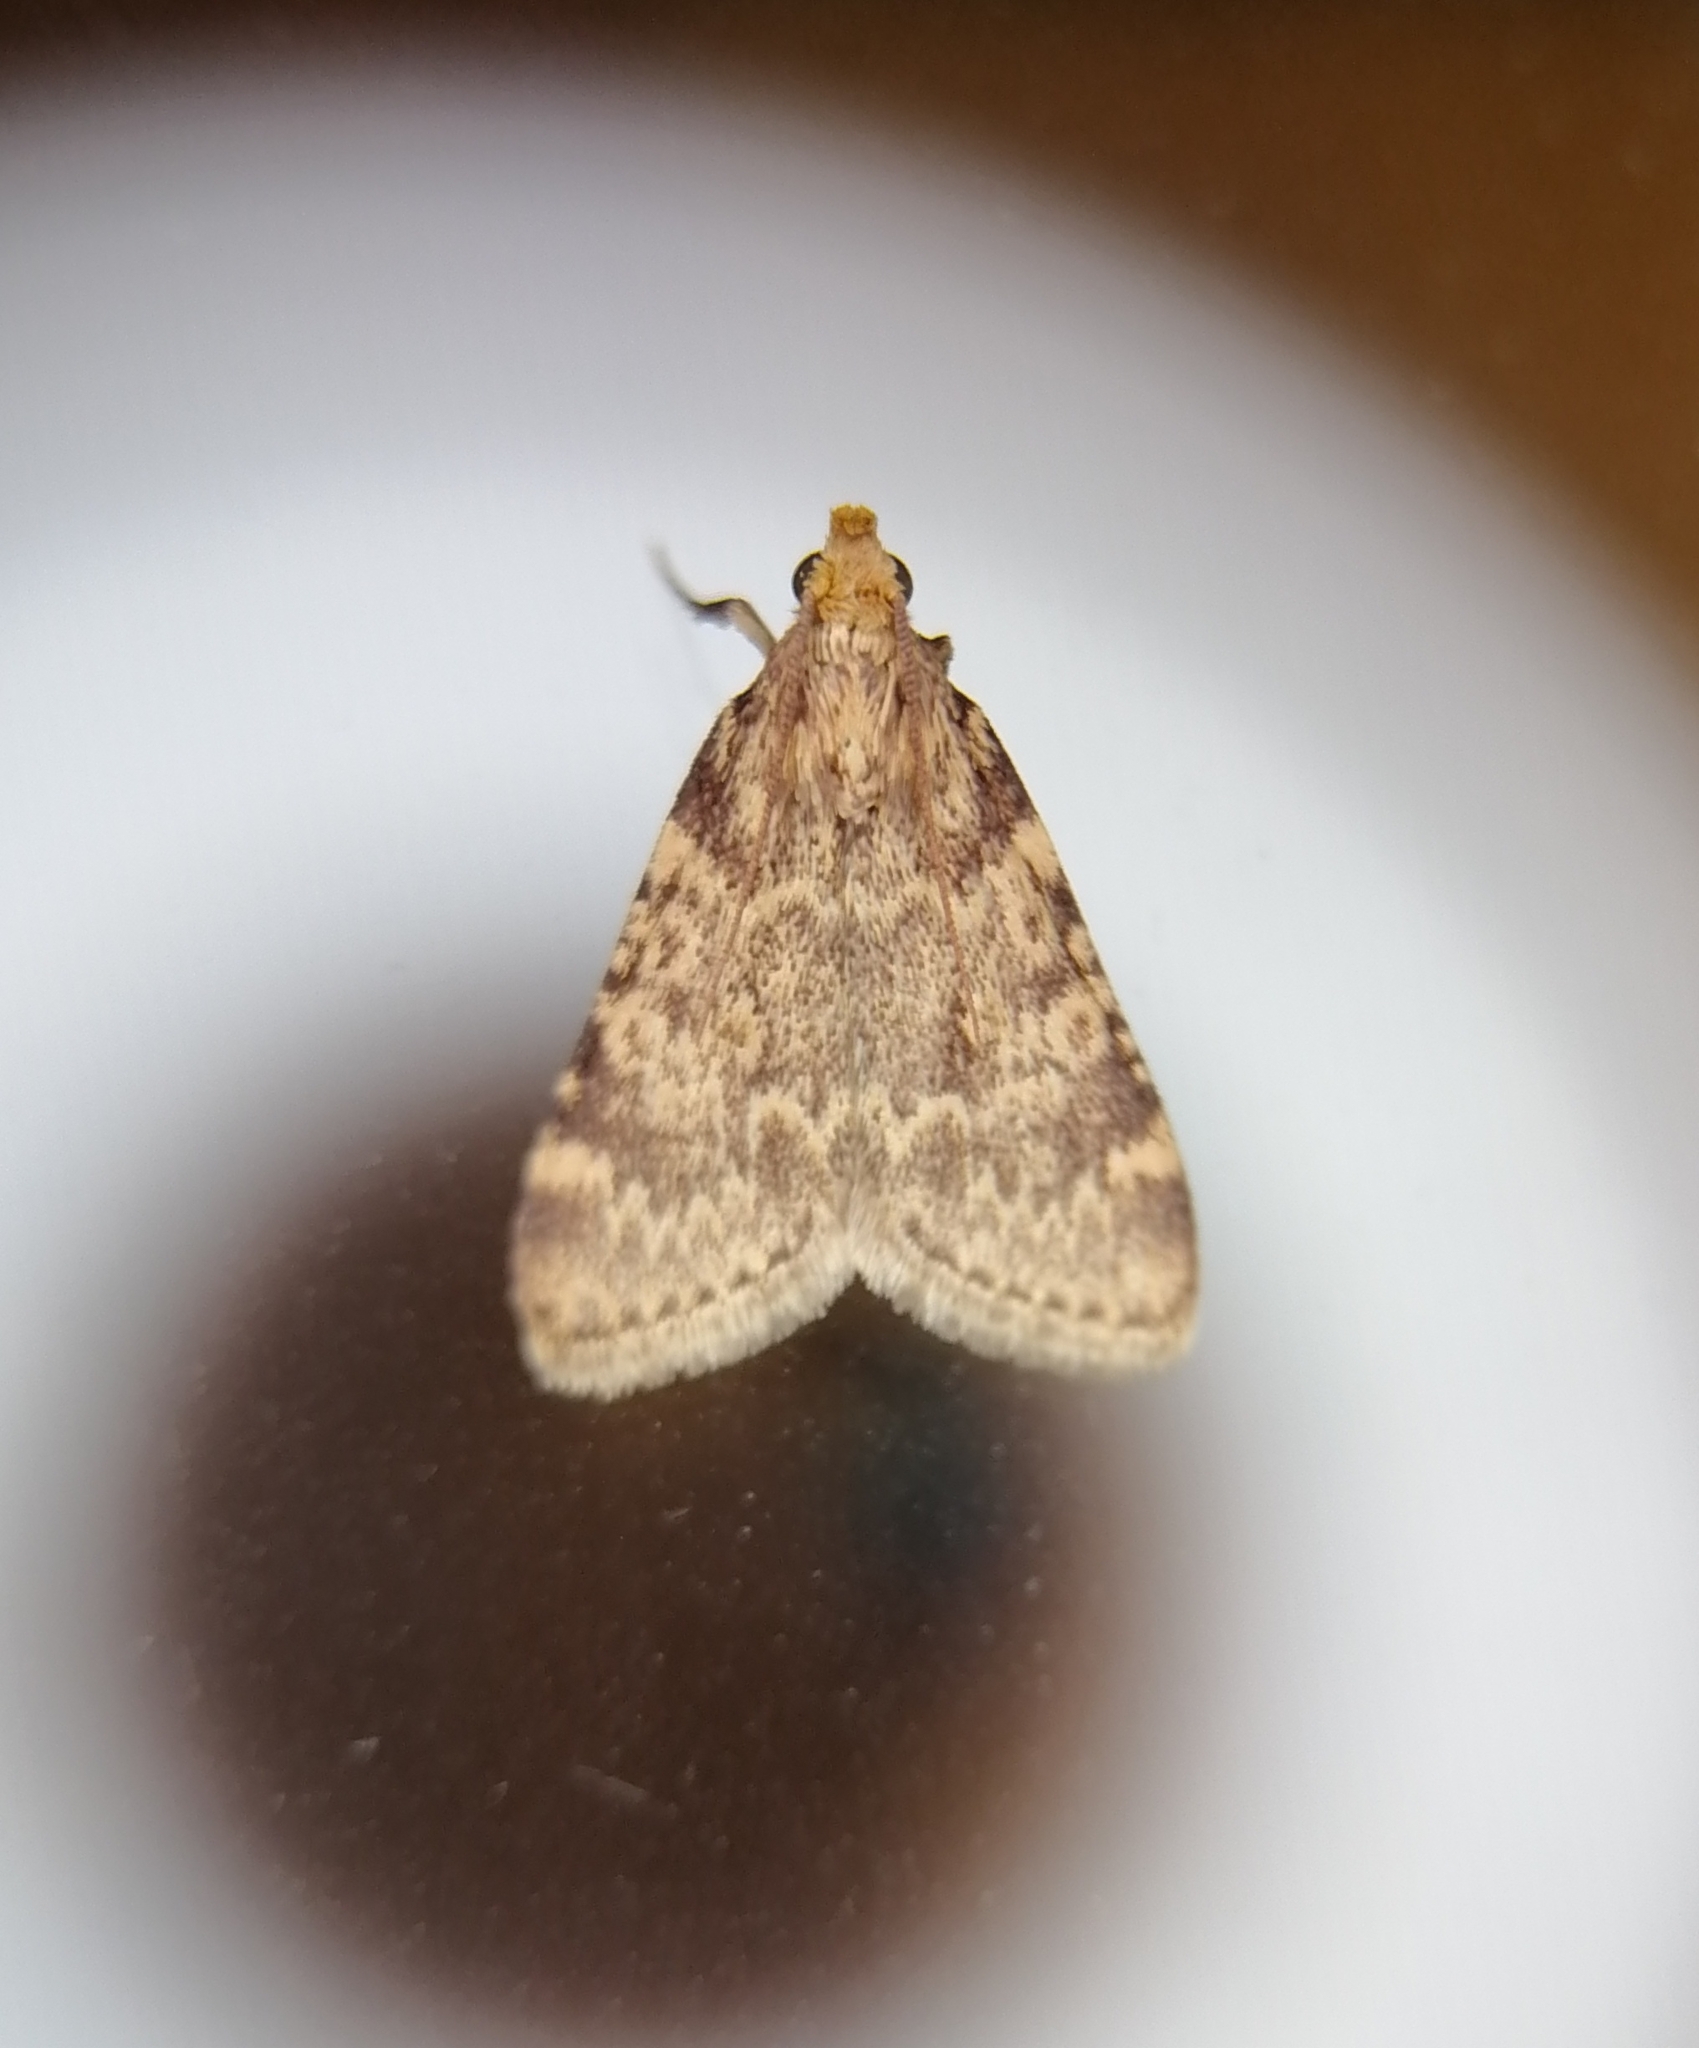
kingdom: Animalia
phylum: Arthropoda
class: Insecta
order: Lepidoptera
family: Pyralidae
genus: Aglossa
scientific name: Aglossa caprealis
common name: Small tabby
